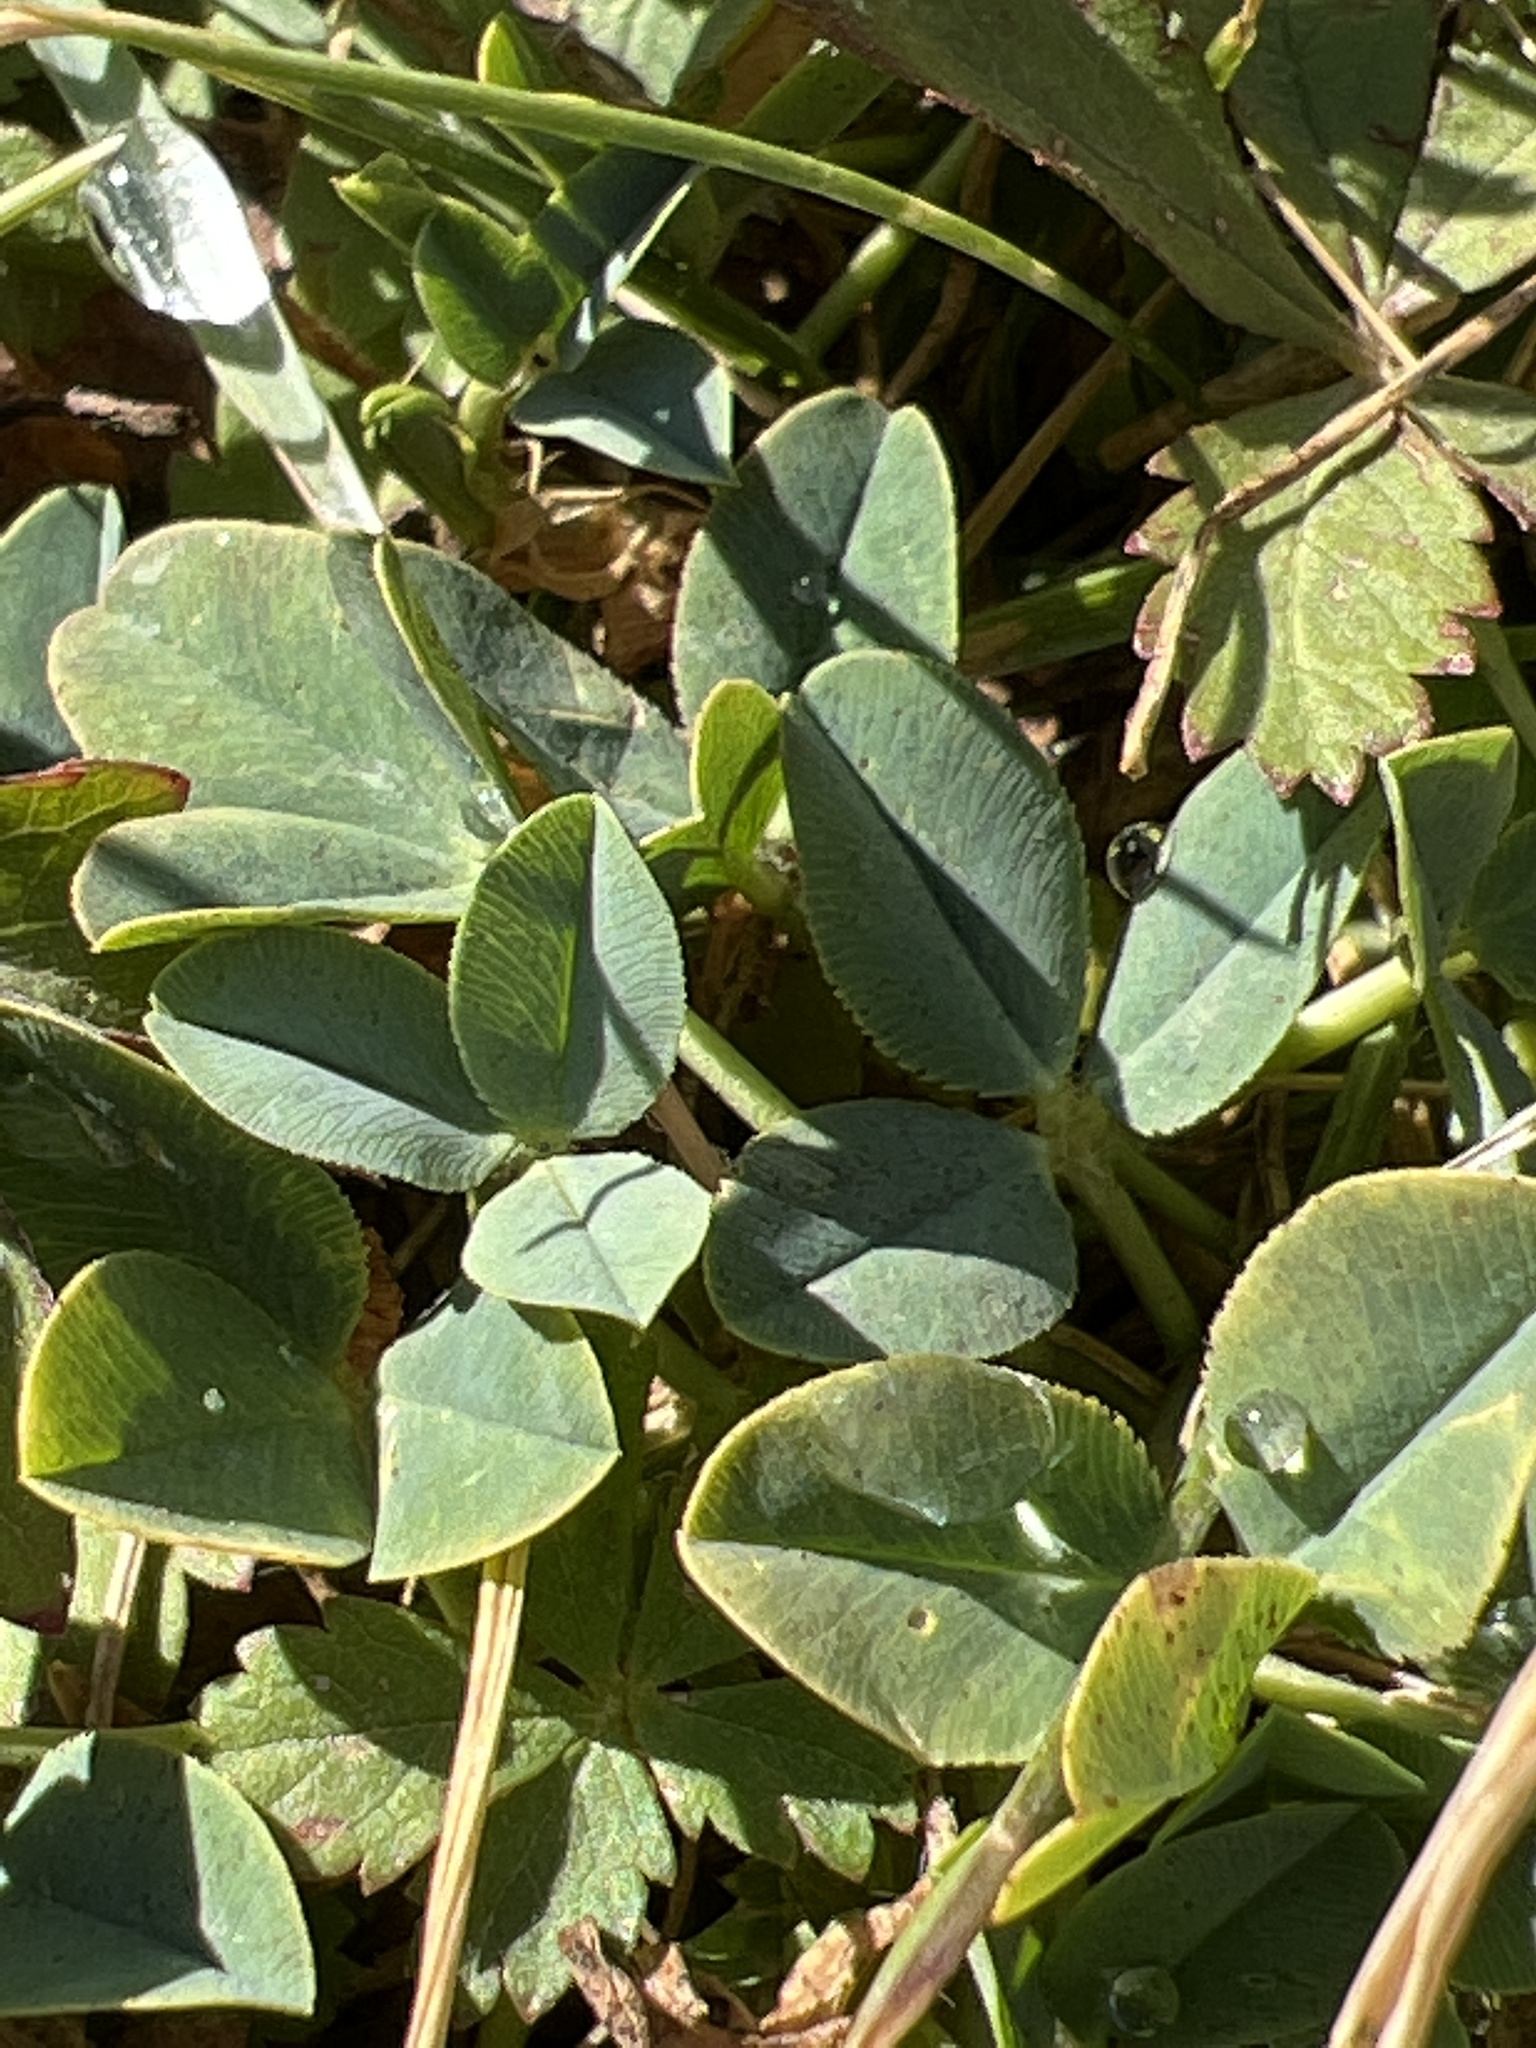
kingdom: Plantae
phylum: Tracheophyta
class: Magnoliopsida
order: Fabales
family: Fabaceae
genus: Trifolium
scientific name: Trifolium fragiferum
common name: Strawberry clover
